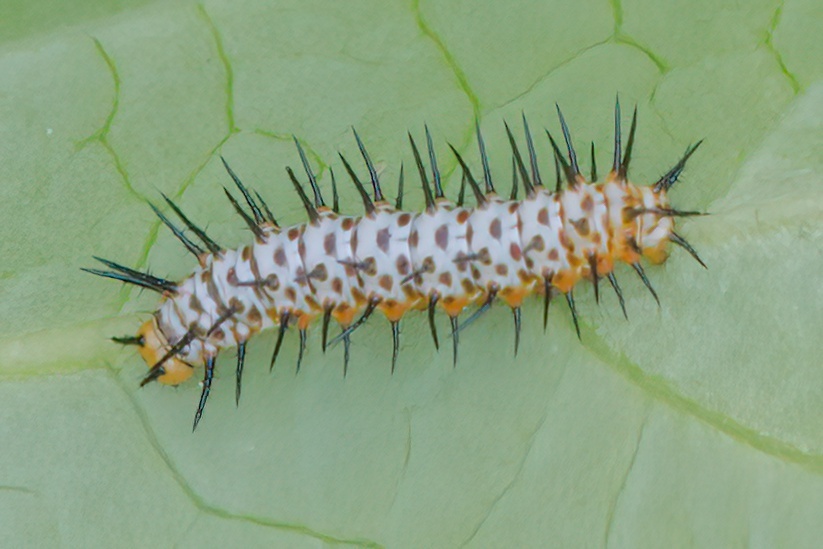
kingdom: Animalia
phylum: Arthropoda
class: Insecta
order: Lepidoptera
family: Nymphalidae
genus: Heliconius
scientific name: Heliconius charithonia
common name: Zebra long wing
